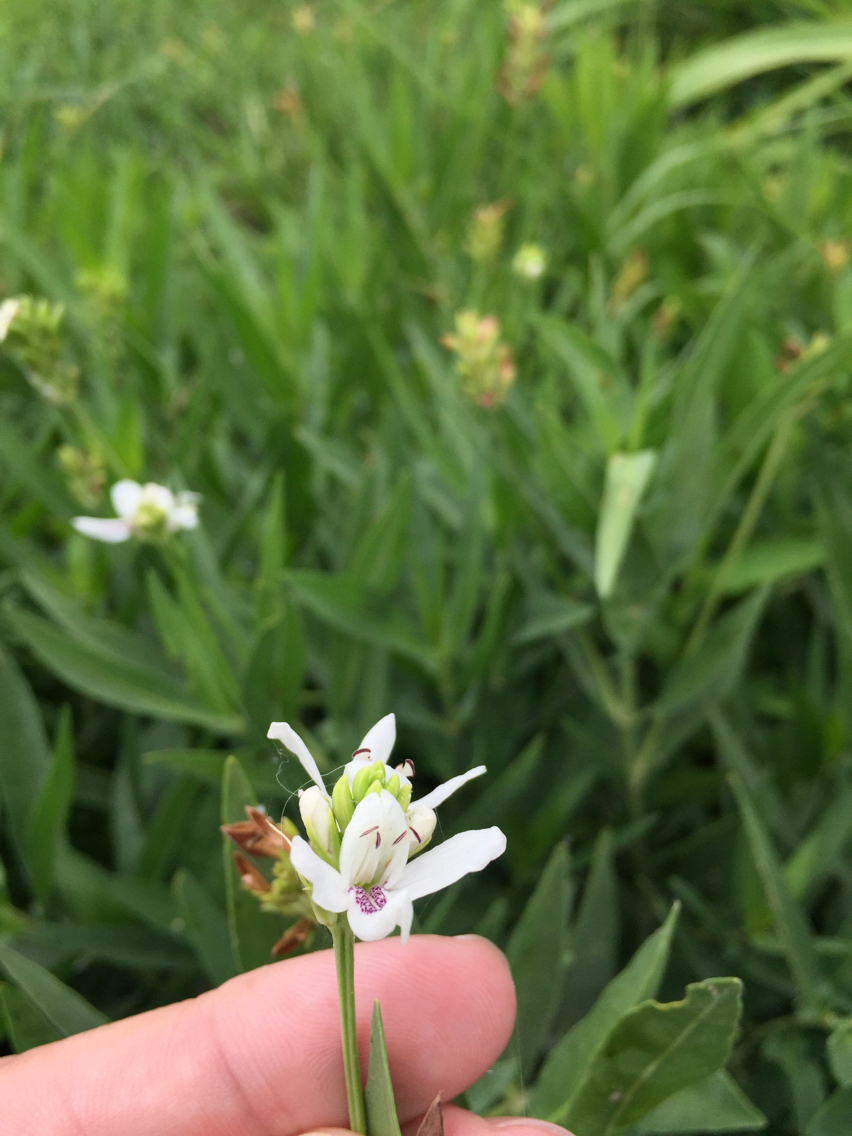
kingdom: Plantae
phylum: Tracheophyta
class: Magnoliopsida
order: Lamiales
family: Acanthaceae
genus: Dianthera
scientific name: Dianthera americana
